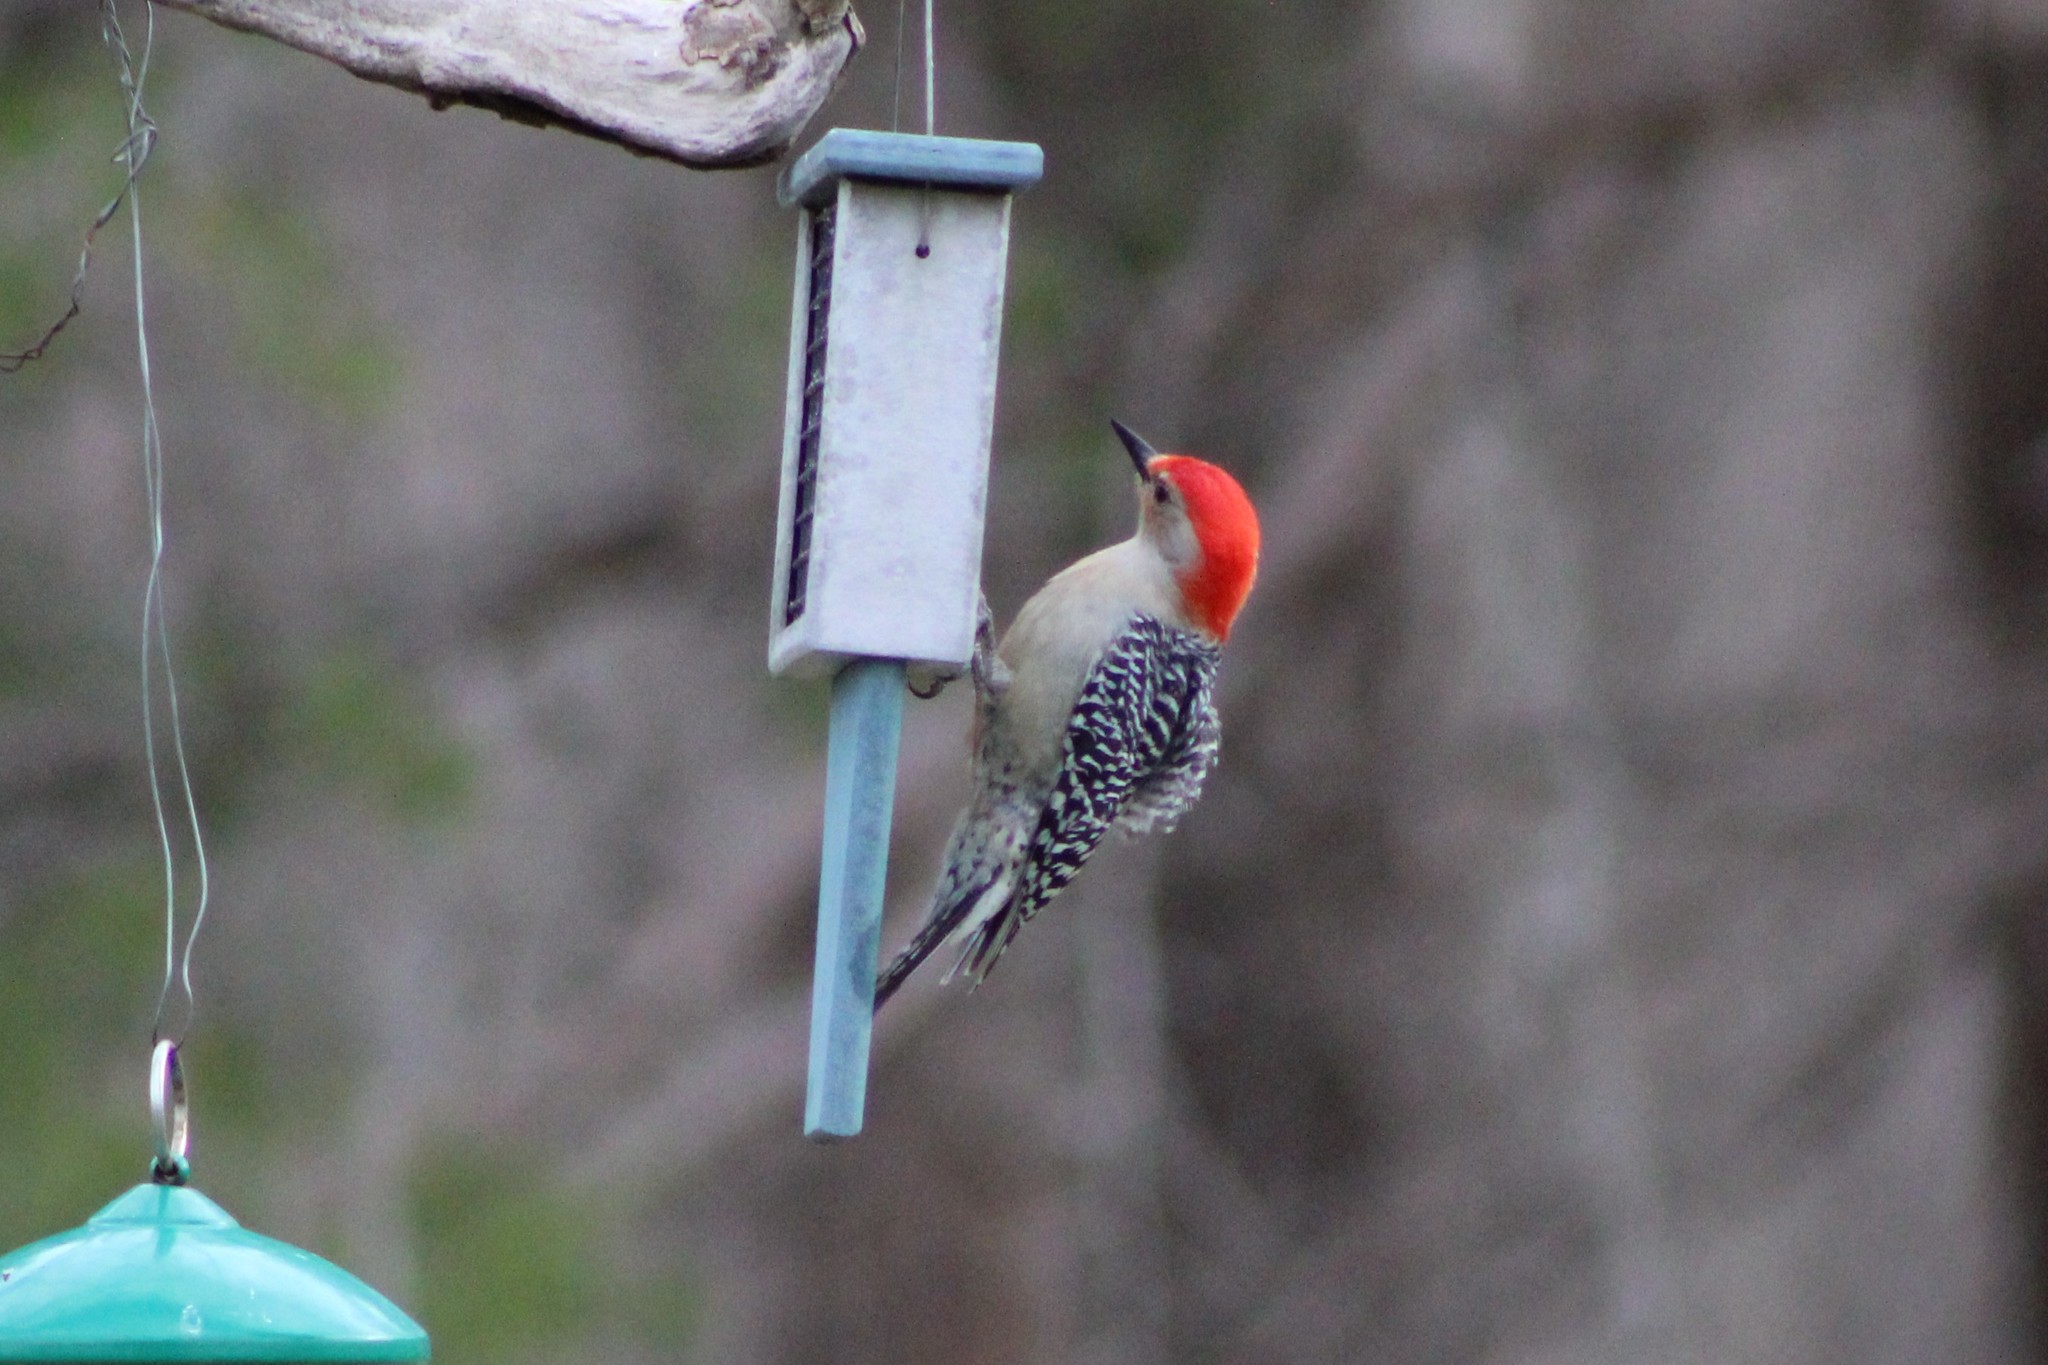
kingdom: Animalia
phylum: Chordata
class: Aves
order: Piciformes
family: Picidae
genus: Melanerpes
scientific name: Melanerpes carolinus
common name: Red-bellied woodpecker
